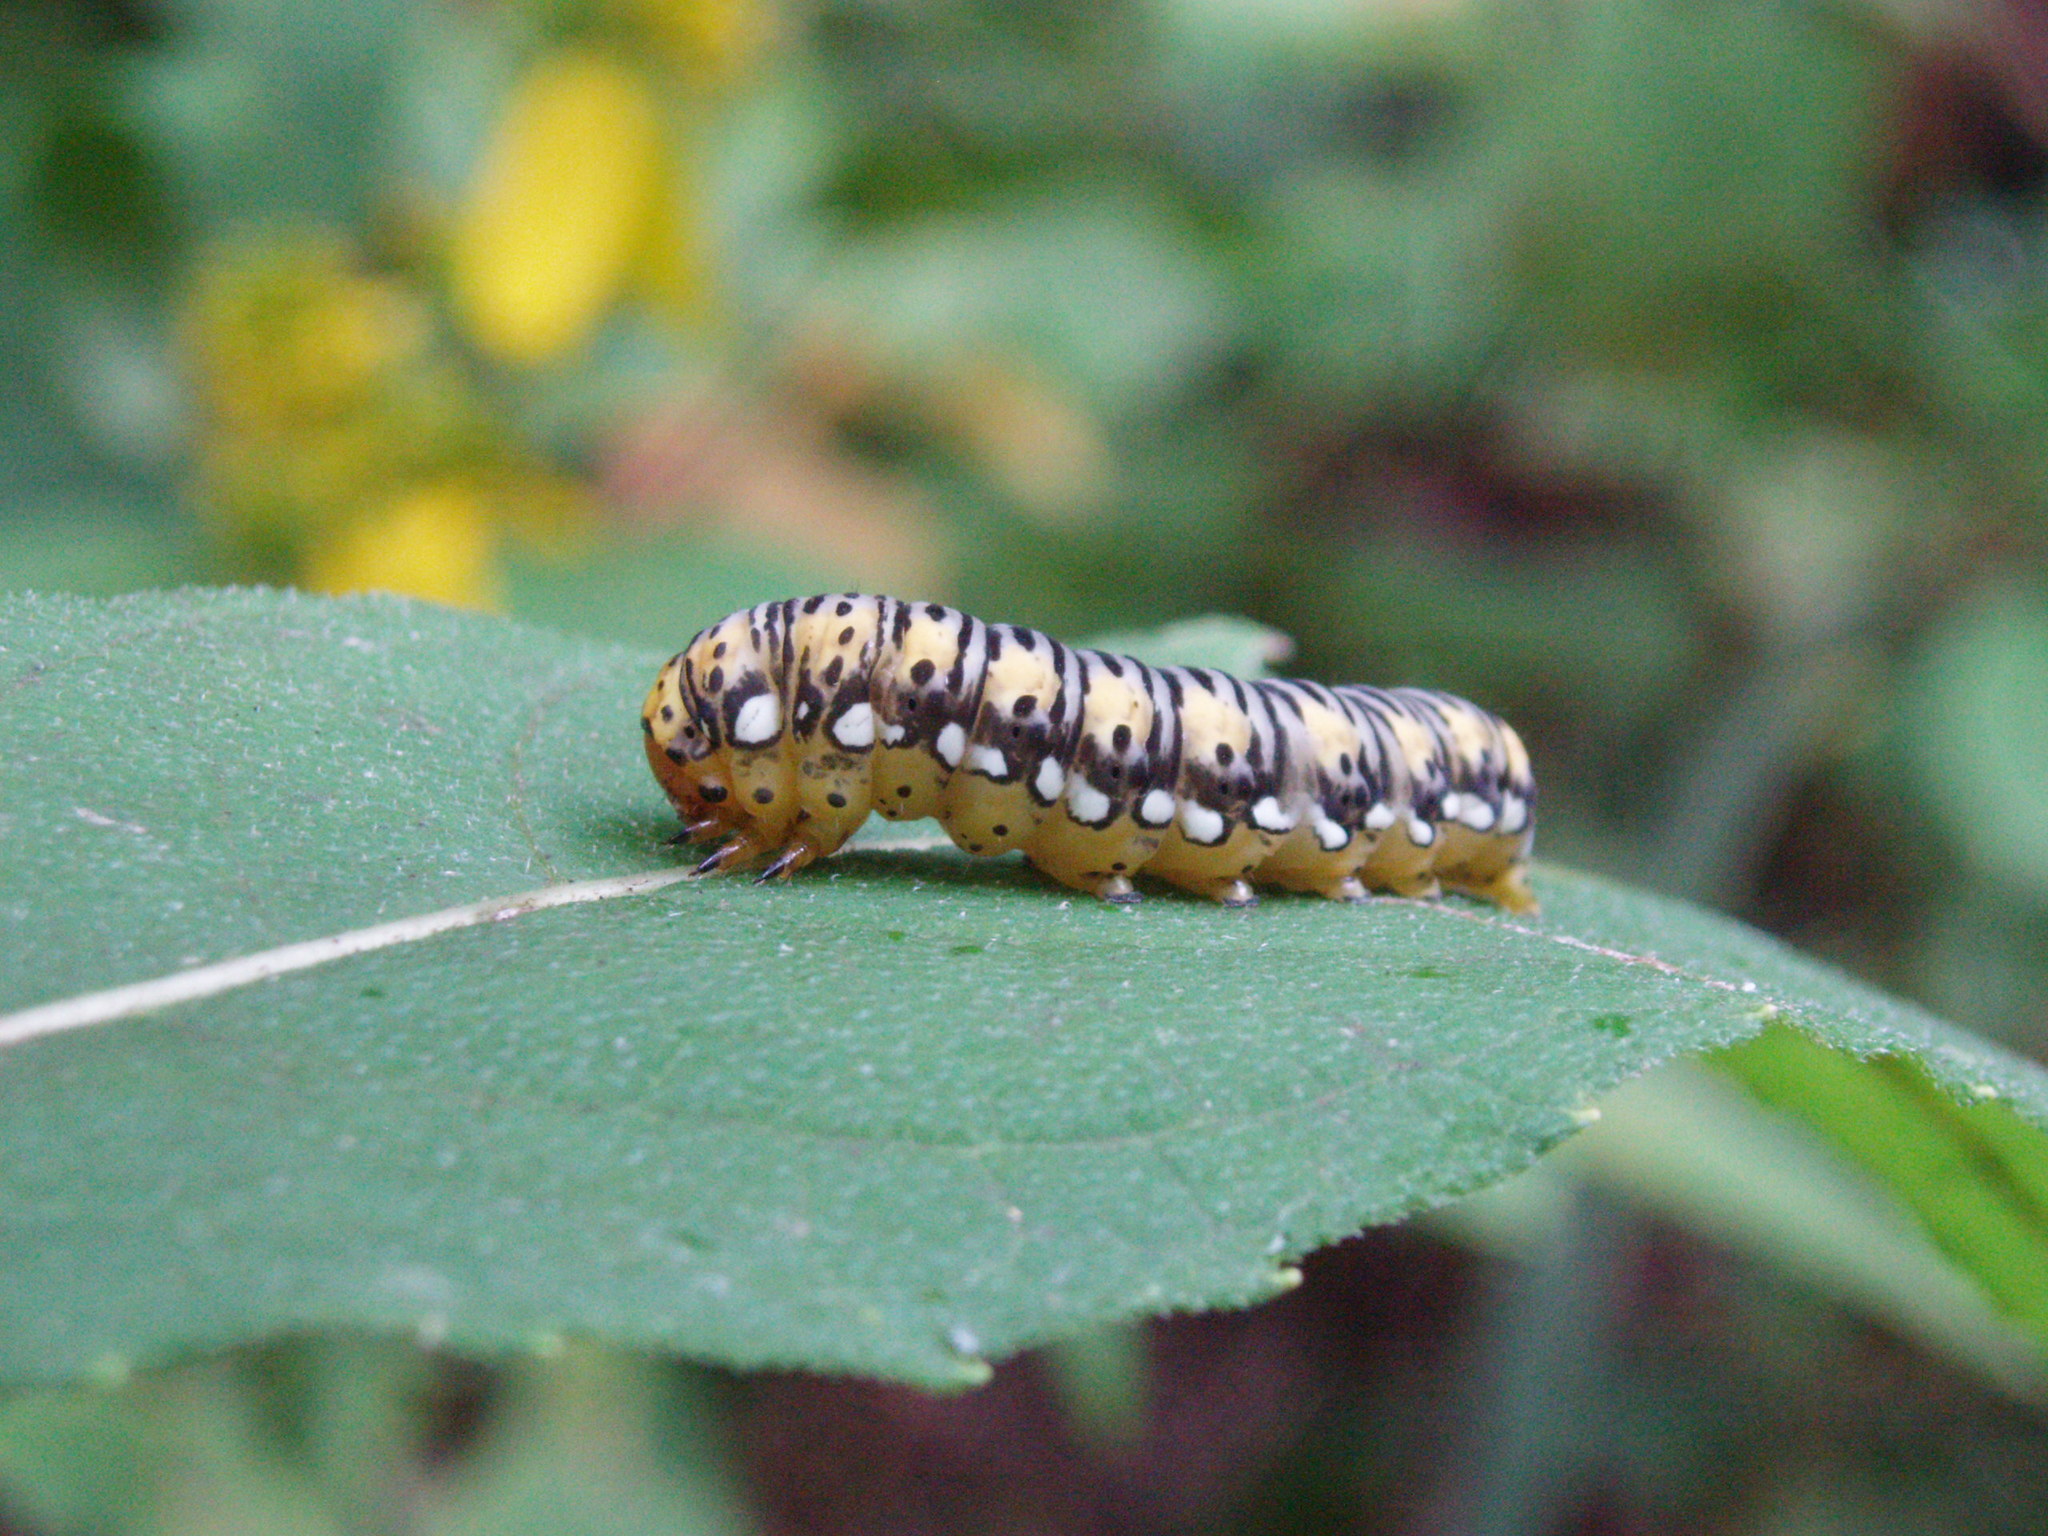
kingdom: Animalia
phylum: Arthropoda
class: Insecta
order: Lepidoptera
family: Noctuidae
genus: Basilodes
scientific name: Basilodes pepita
